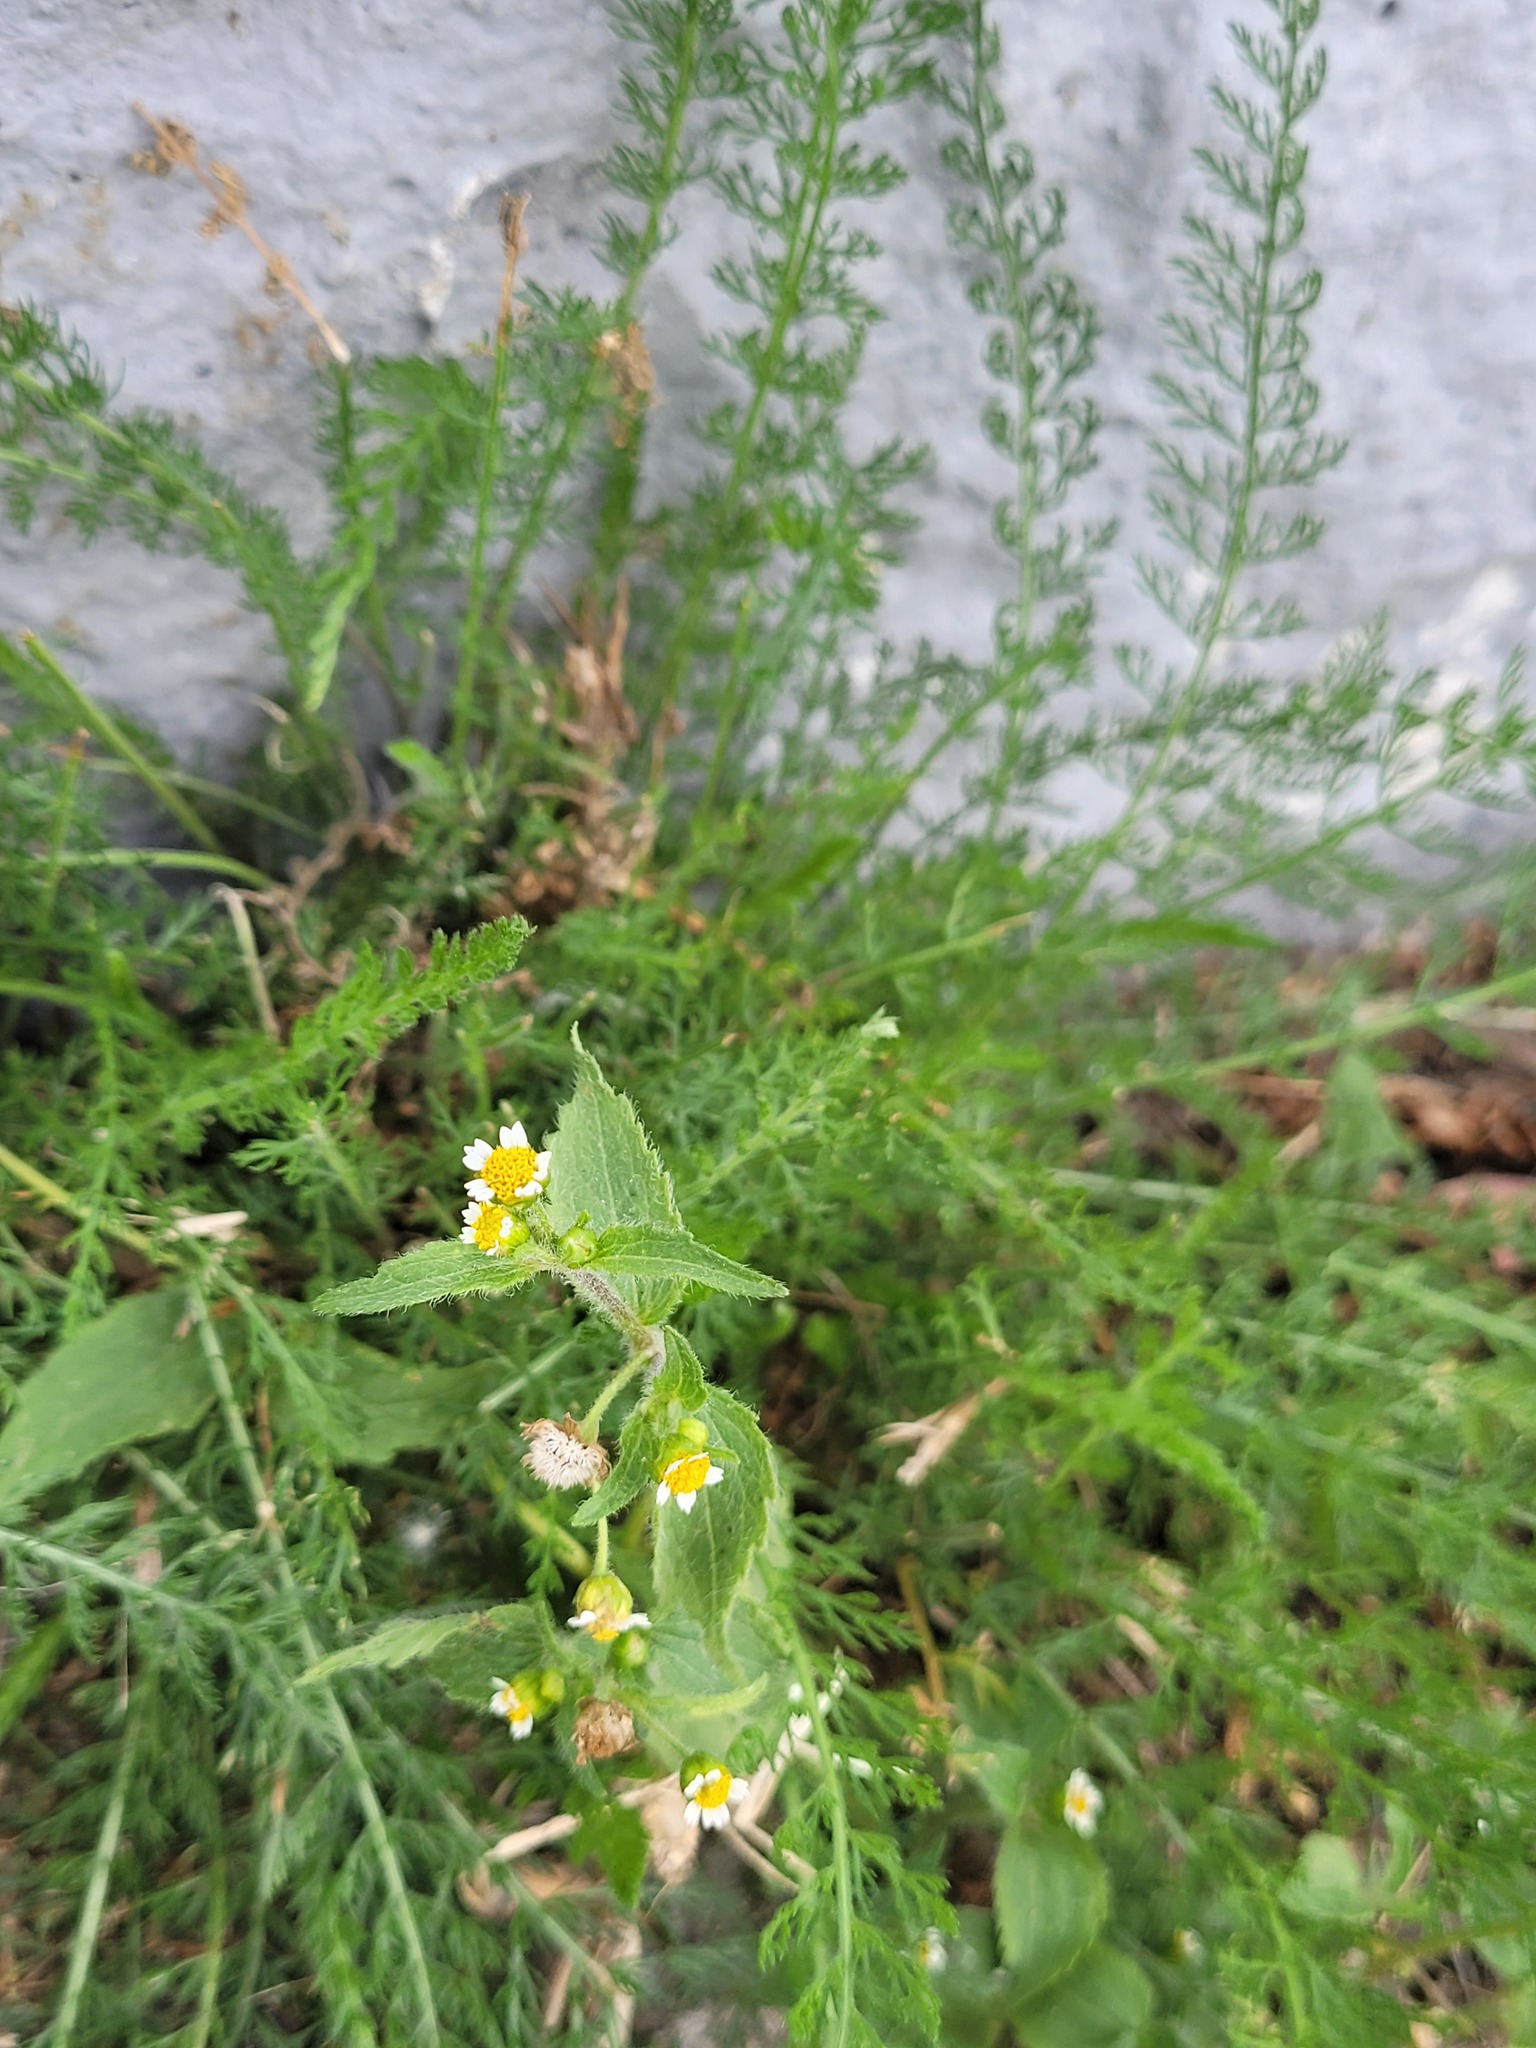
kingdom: Plantae
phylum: Tracheophyta
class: Magnoliopsida
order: Asterales
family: Asteraceae
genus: Galinsoga
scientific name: Galinsoga quadriradiata
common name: Shaggy soldier
